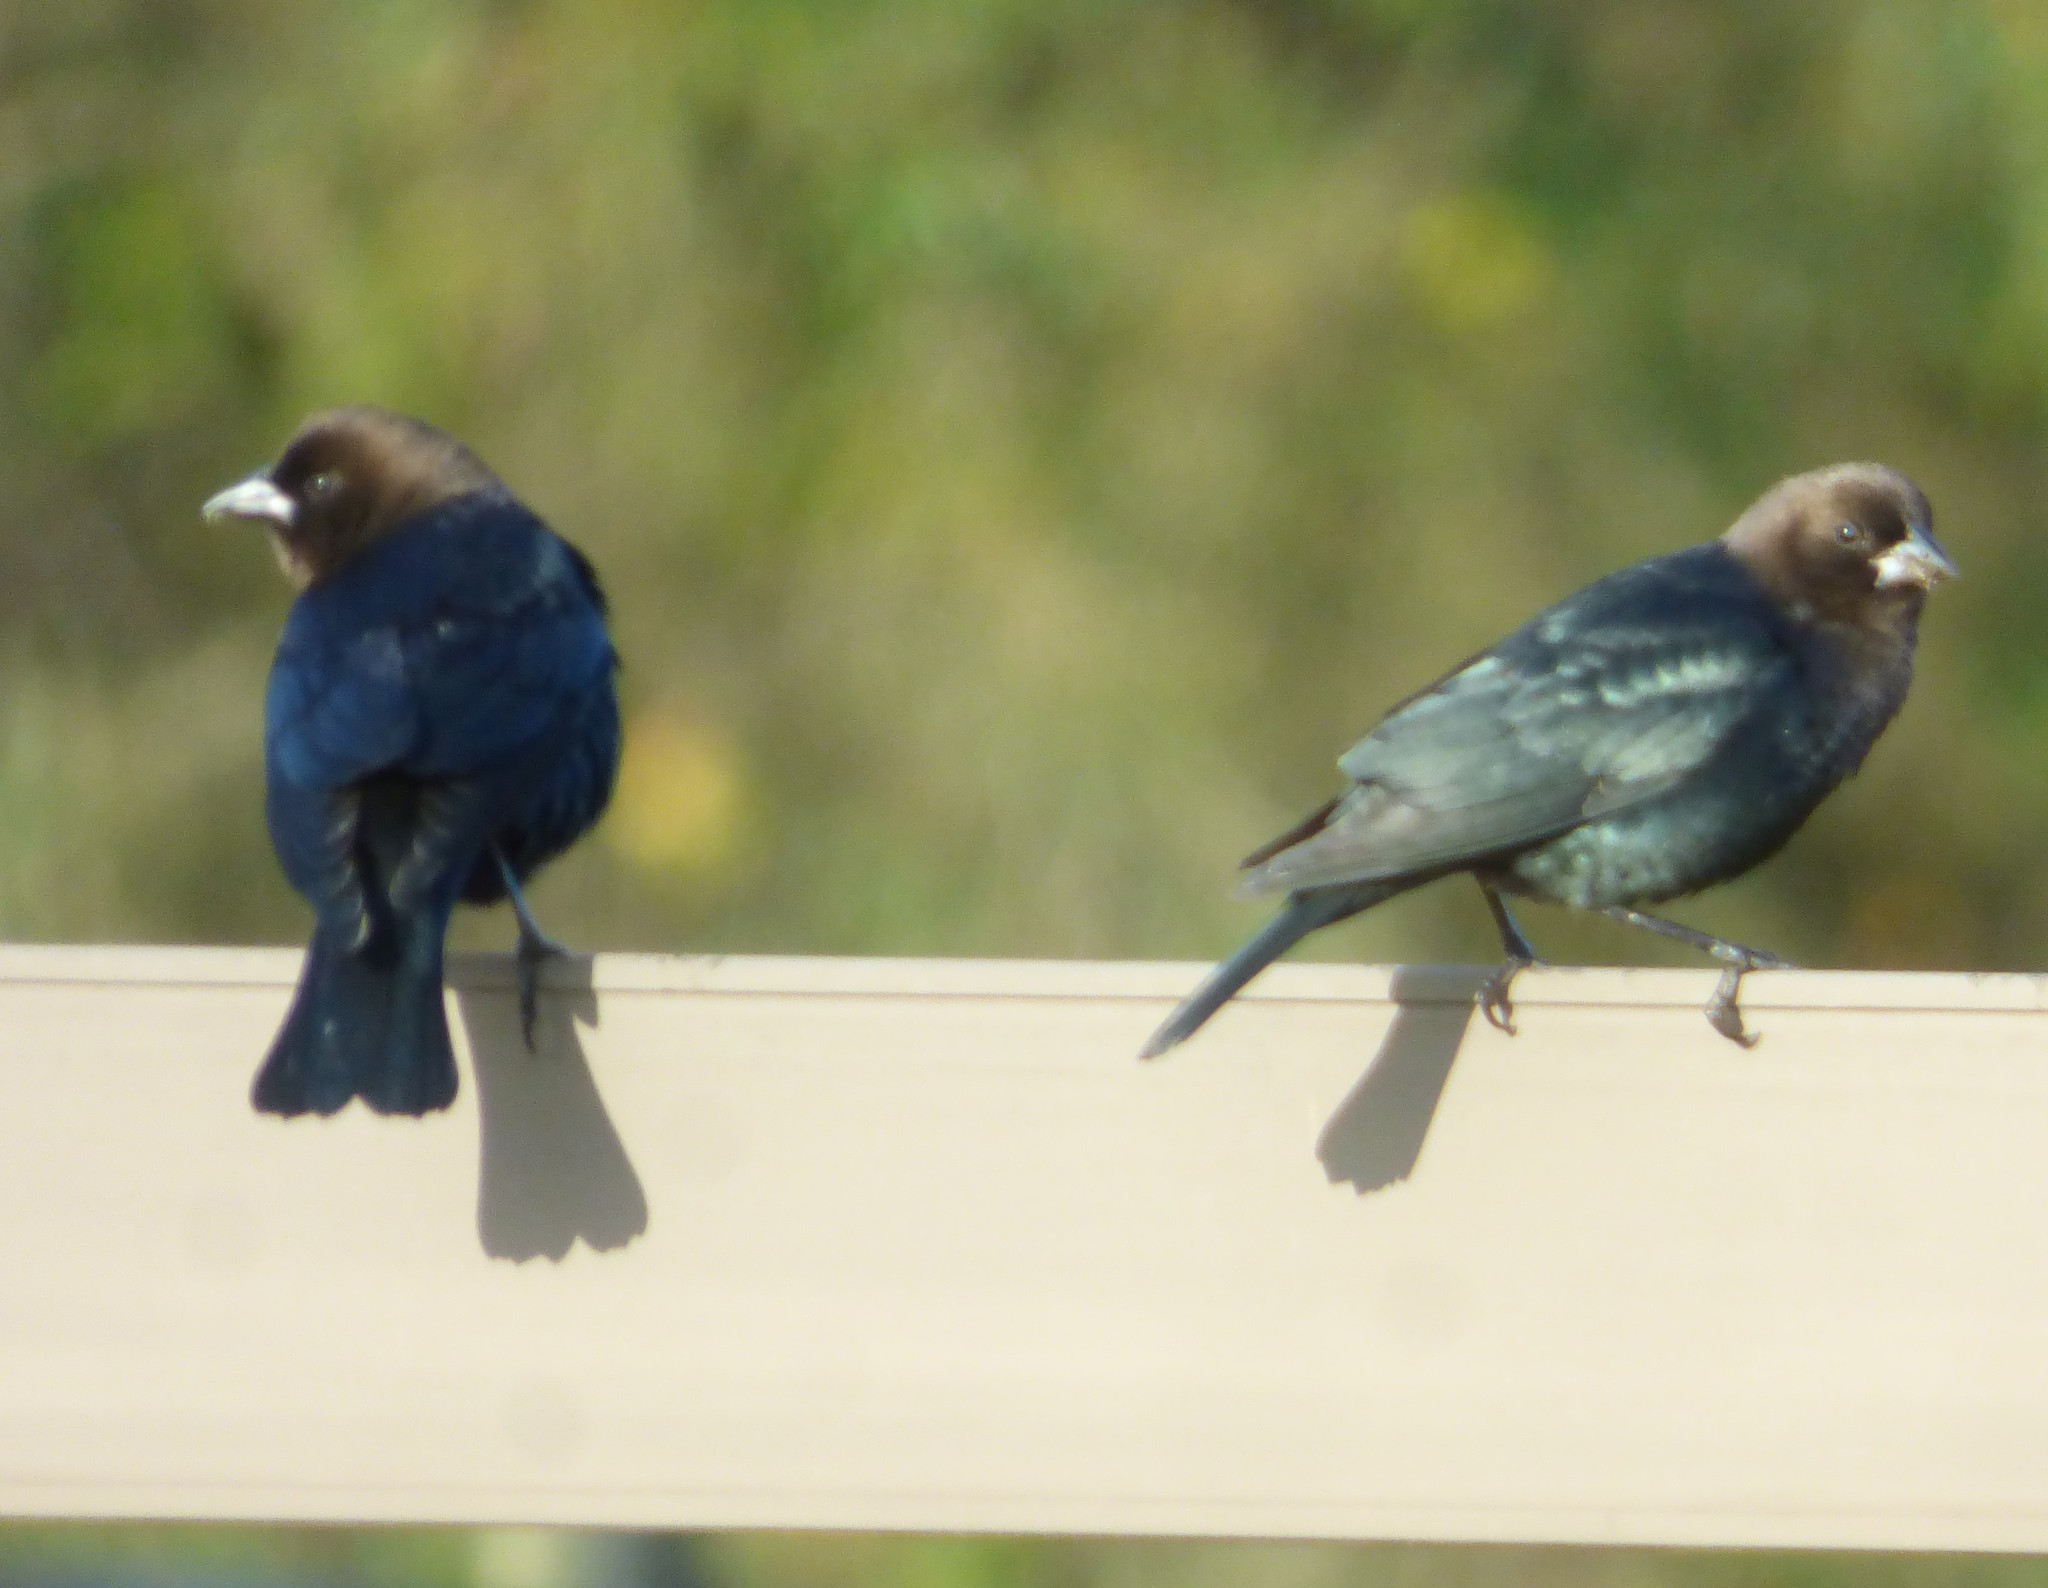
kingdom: Animalia
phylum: Chordata
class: Aves
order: Passeriformes
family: Icteridae
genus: Molothrus
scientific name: Molothrus ater
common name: Brown-headed cowbird
